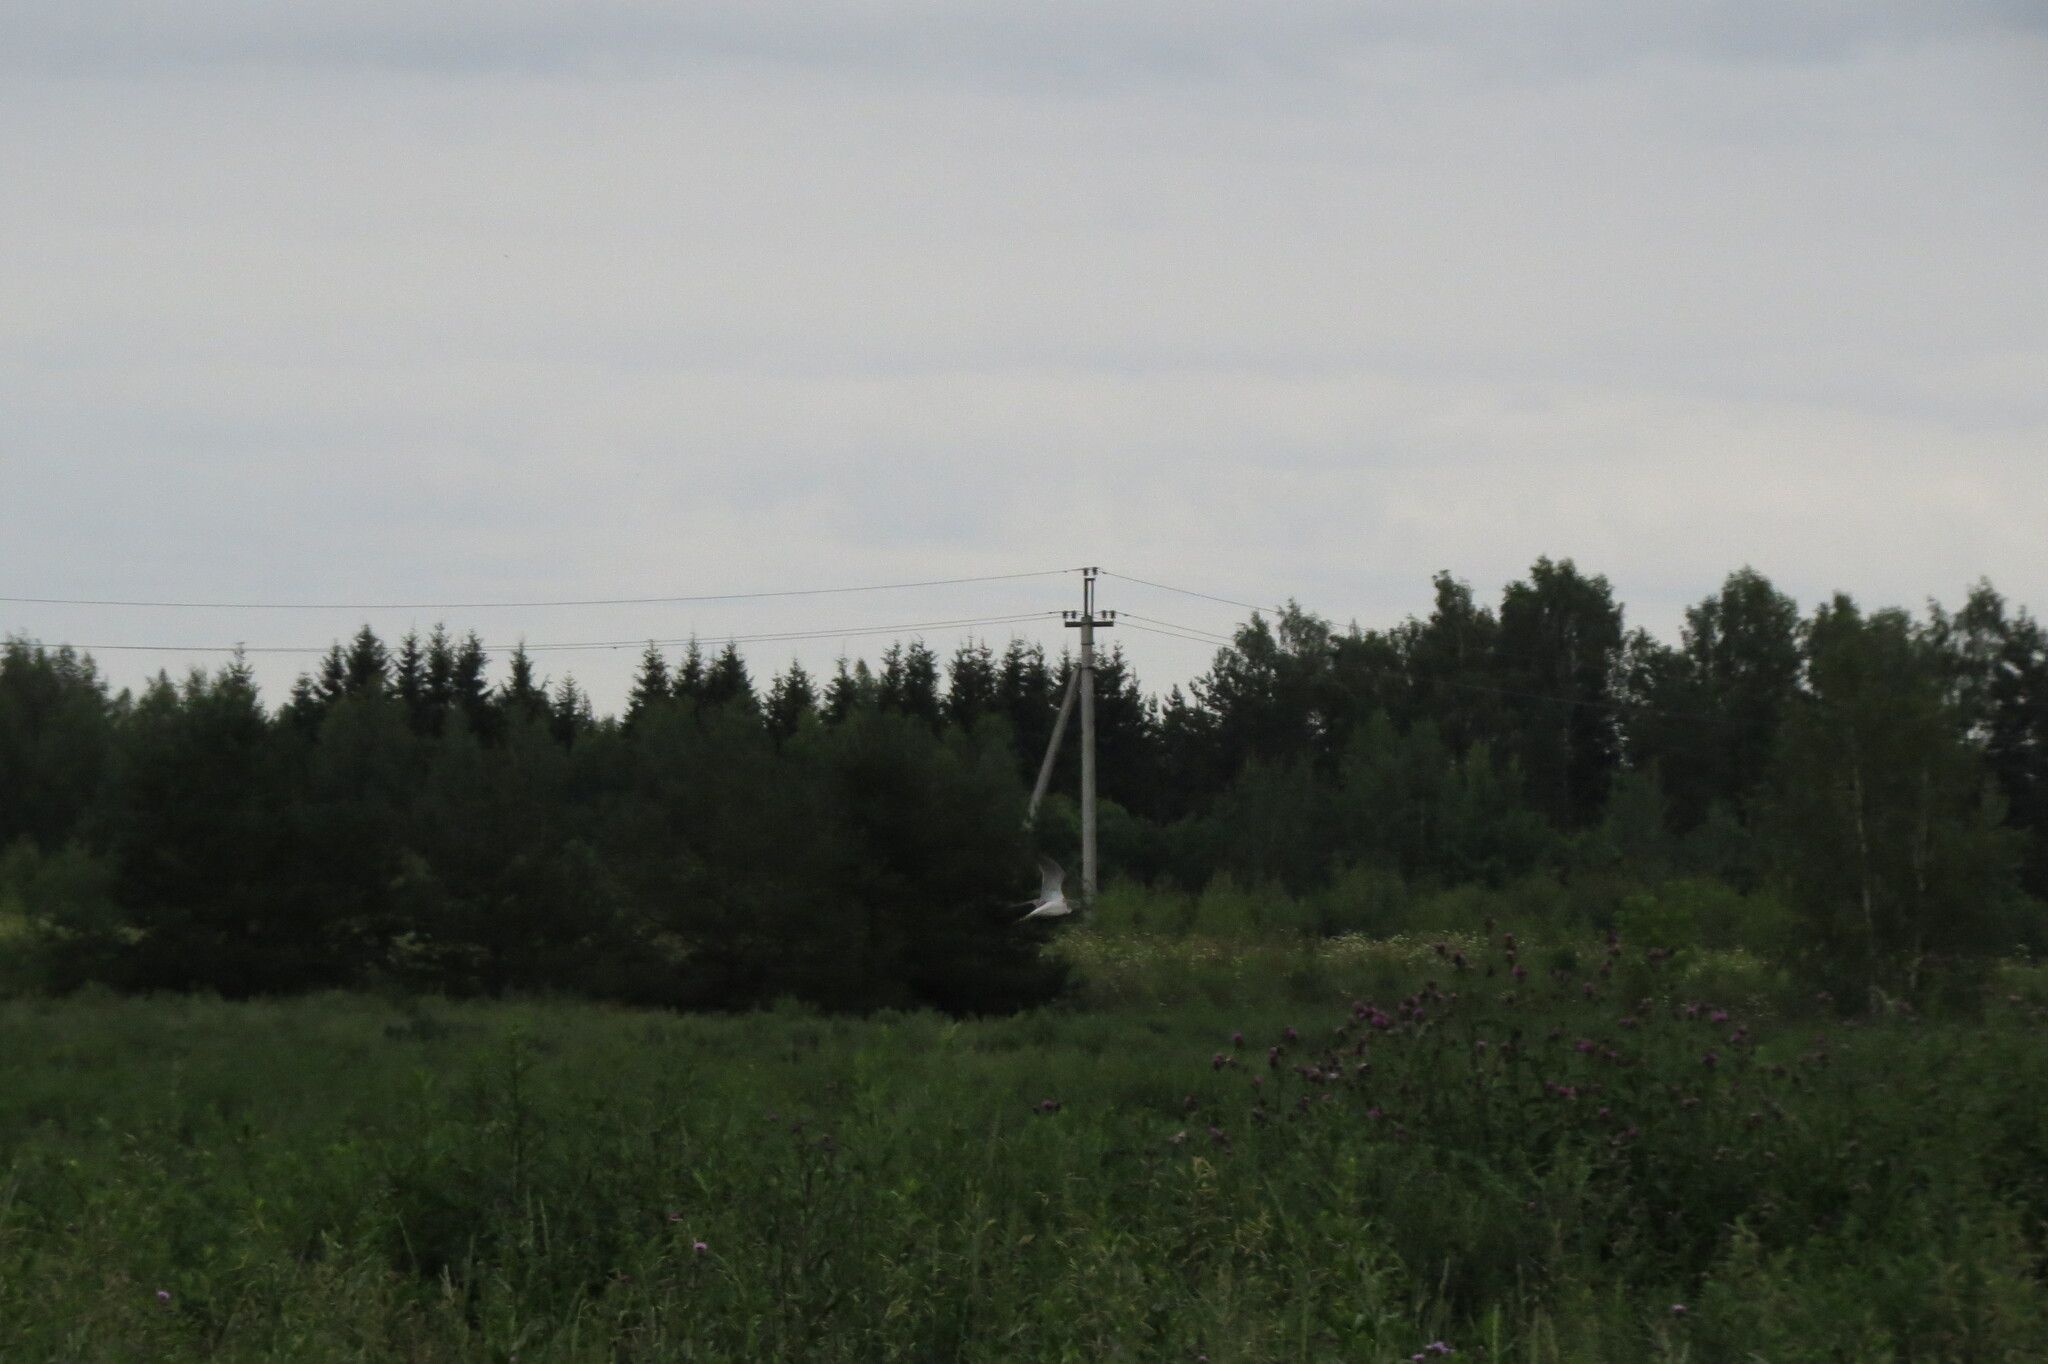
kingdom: Animalia
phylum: Chordata
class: Aves
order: Charadriiformes
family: Scolopacidae
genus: Tringa
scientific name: Tringa nebularia
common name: Common greenshank
